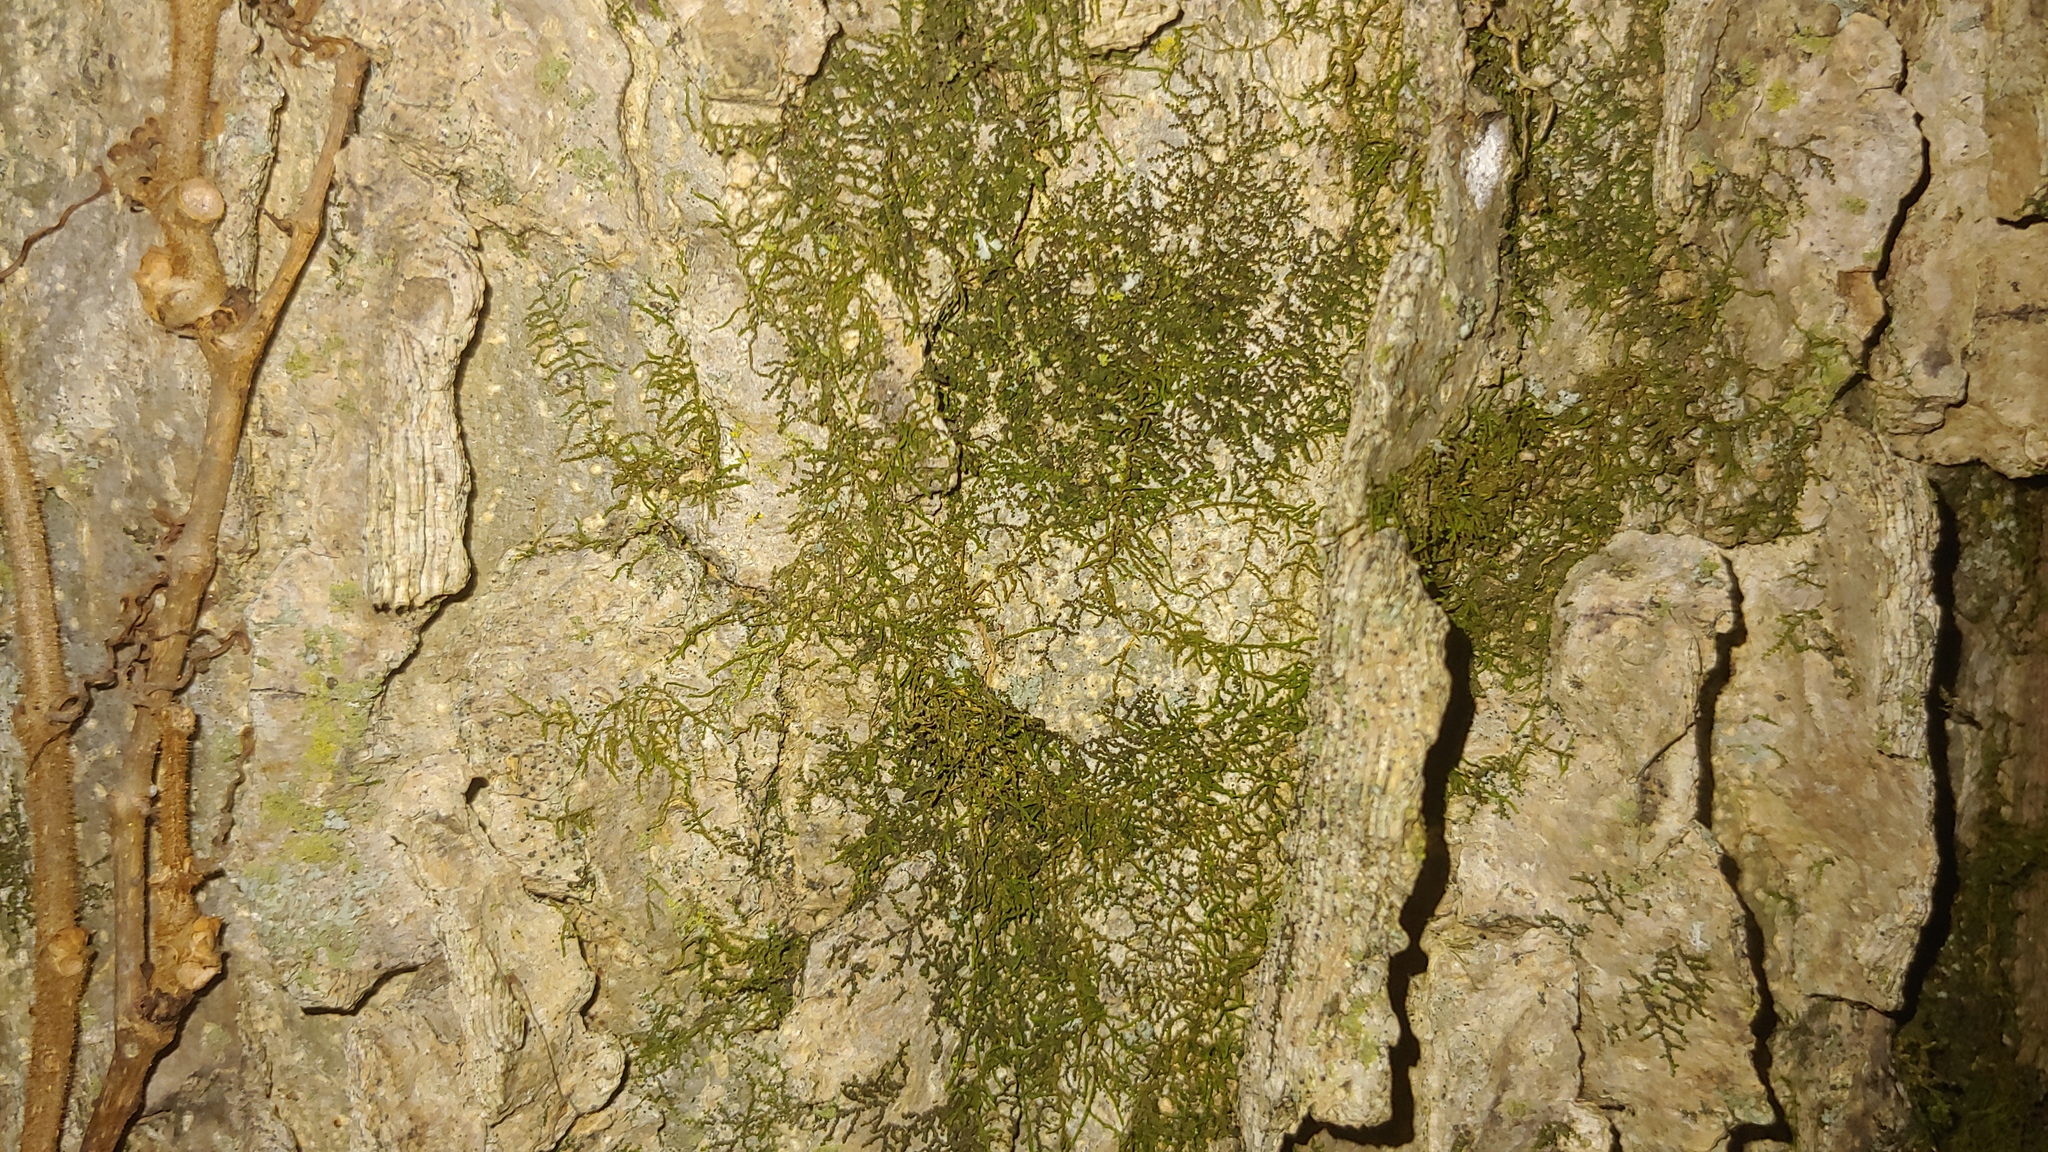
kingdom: Plantae
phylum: Marchantiophyta
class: Jungermanniopsida
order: Porellales
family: Frullaniaceae
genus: Frullania
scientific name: Frullania eboracensis
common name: New york scalewort
